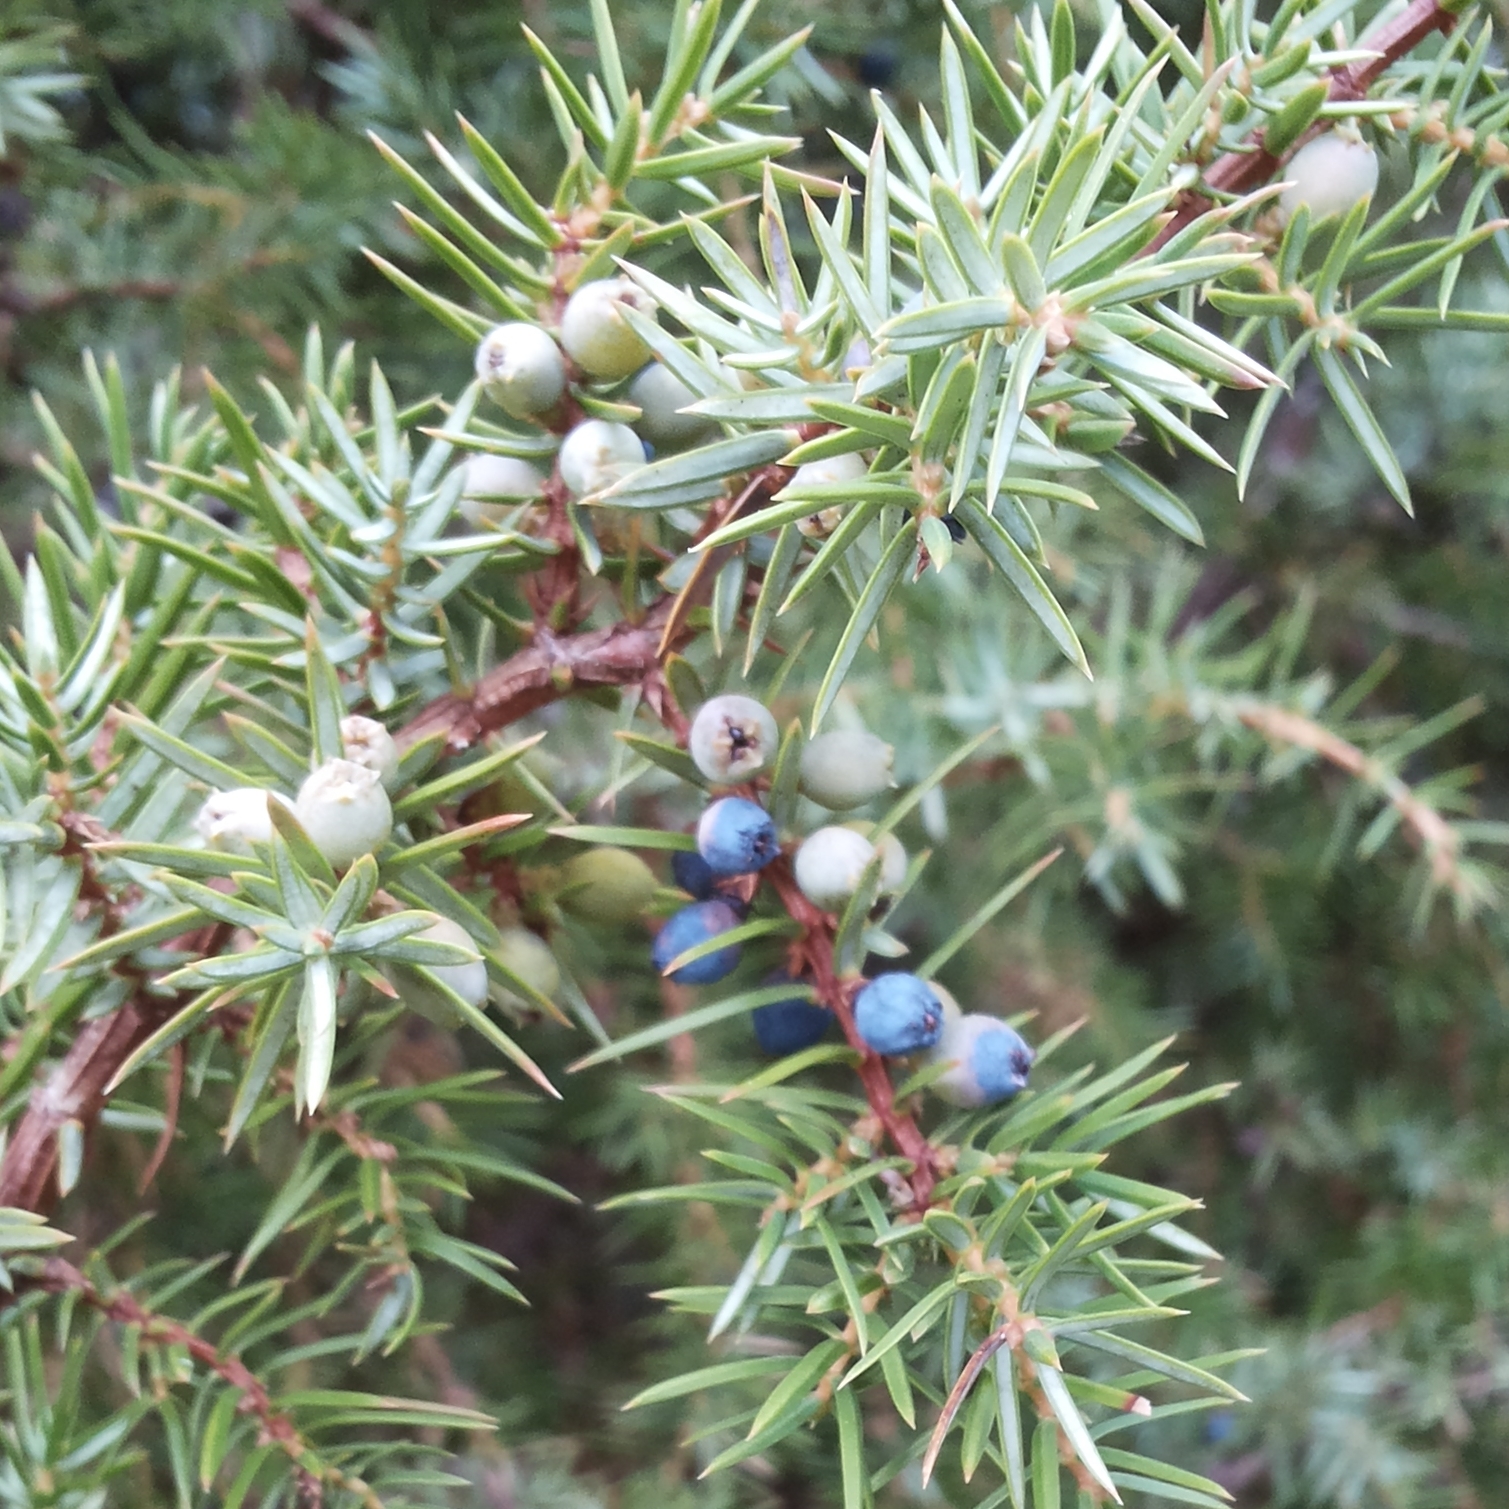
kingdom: Plantae
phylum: Tracheophyta
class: Pinopsida
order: Pinales
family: Cupressaceae
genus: Juniperus
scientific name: Juniperus communis
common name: Common juniper
